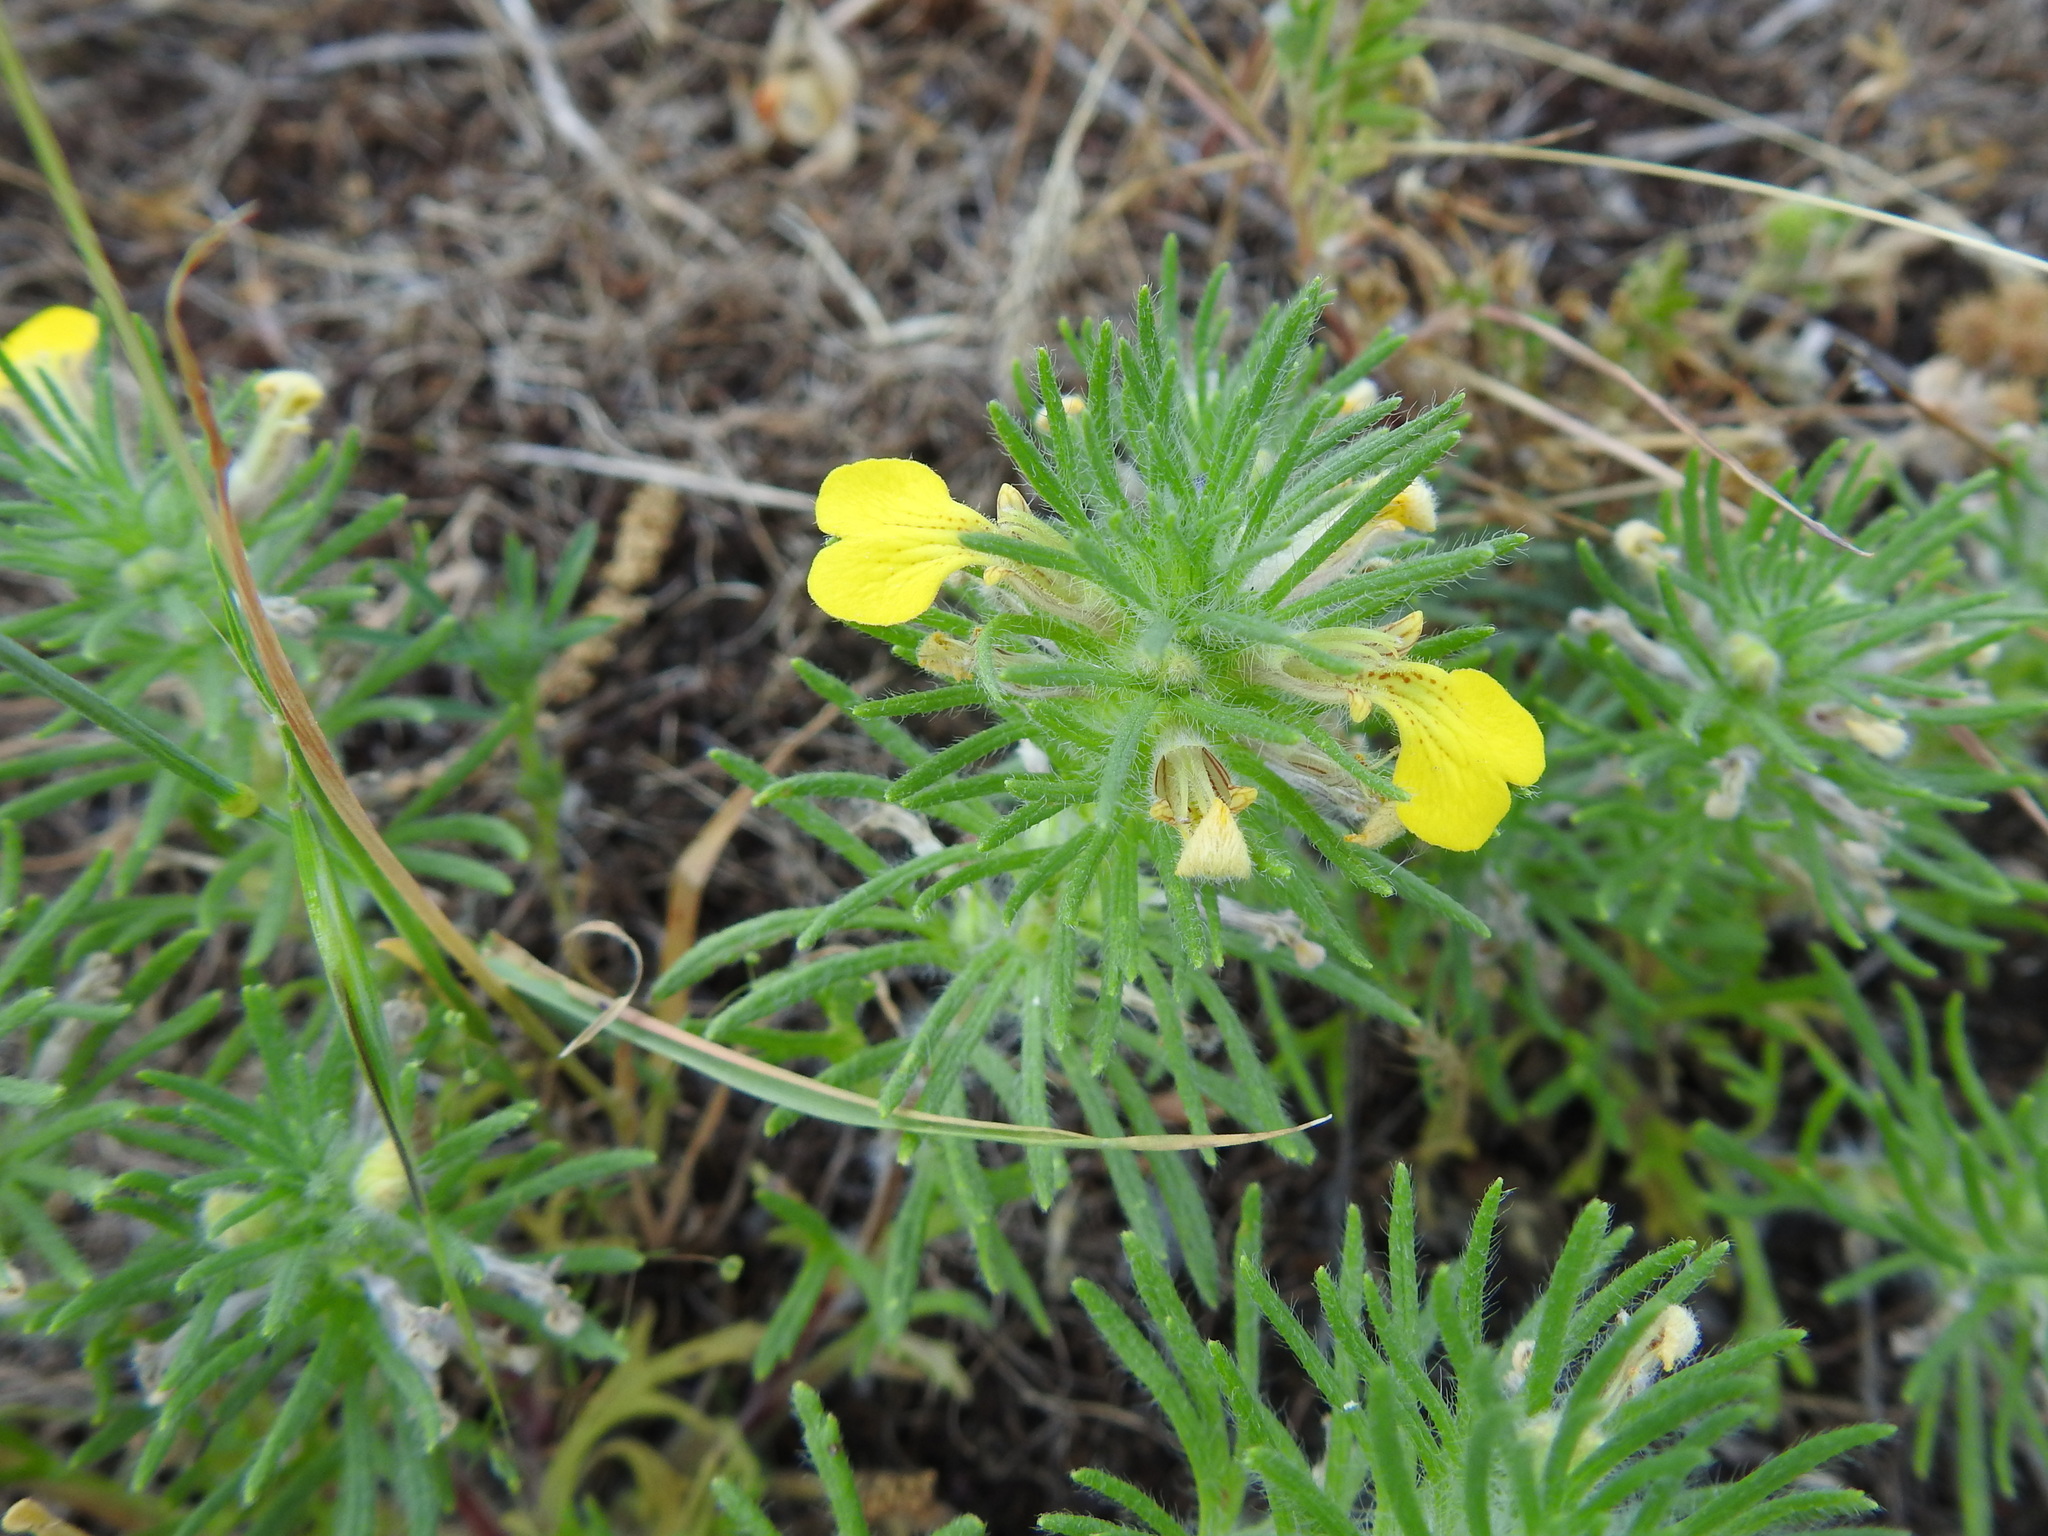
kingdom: Plantae
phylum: Tracheophyta
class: Magnoliopsida
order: Lamiales
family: Lamiaceae
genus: Ajuga
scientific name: Ajuga chamaepitys
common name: Ground-pine
